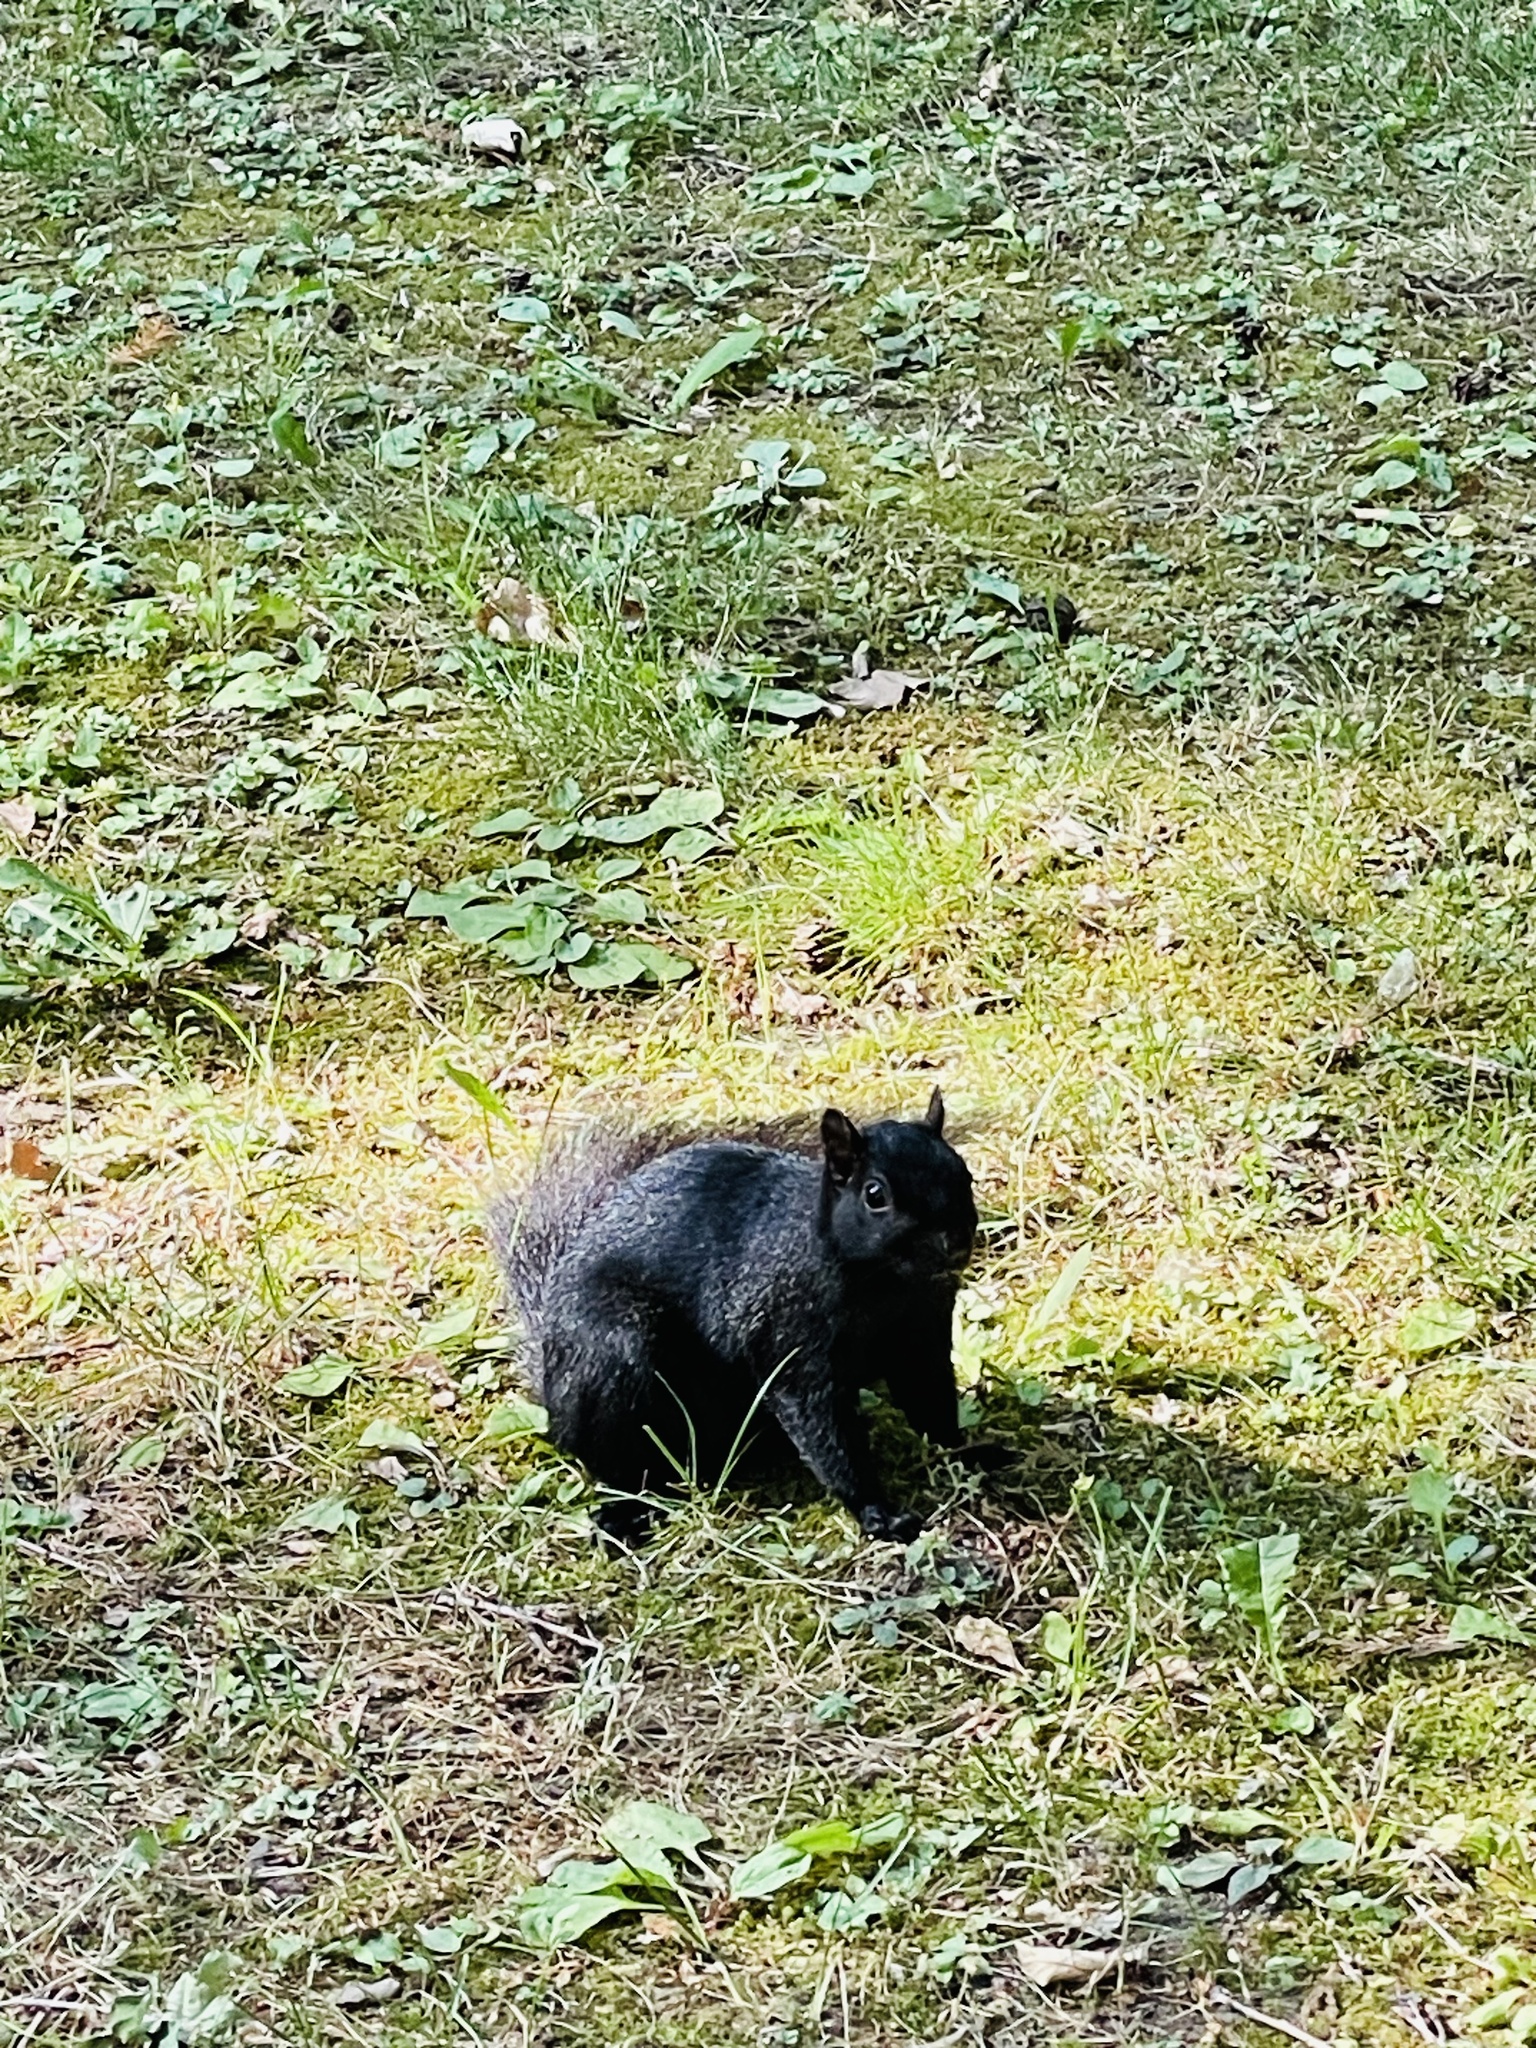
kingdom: Animalia
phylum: Chordata
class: Mammalia
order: Rodentia
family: Sciuridae
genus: Sciurus
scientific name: Sciurus carolinensis
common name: Eastern gray squirrel
